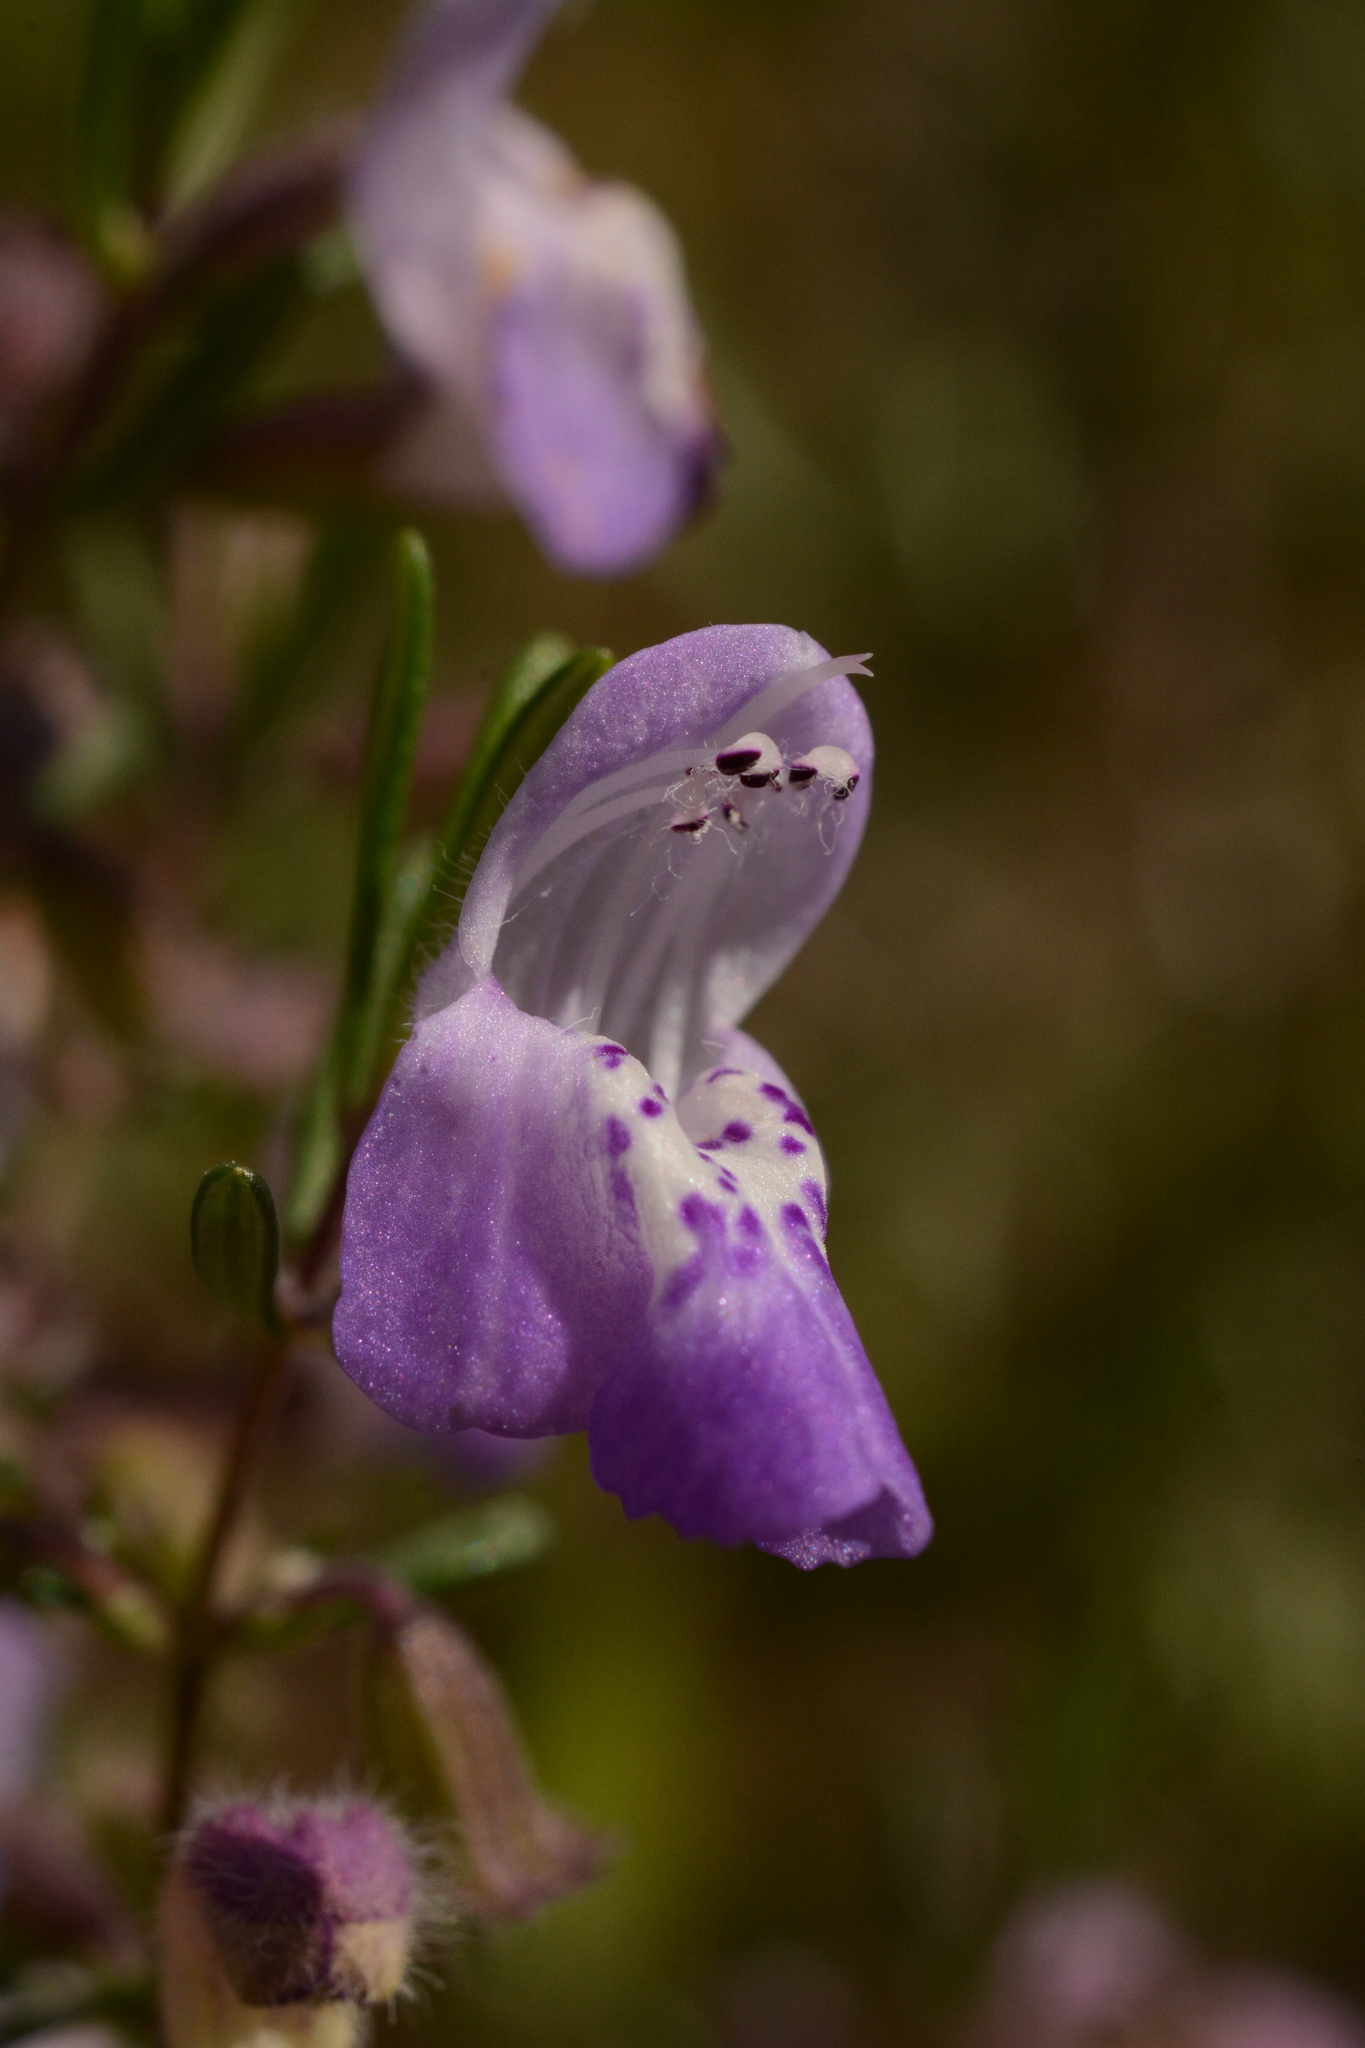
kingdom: Plantae
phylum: Tracheophyta
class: Magnoliopsida
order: Lamiales
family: Lamiaceae
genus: Conradina
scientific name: Conradina canescens
